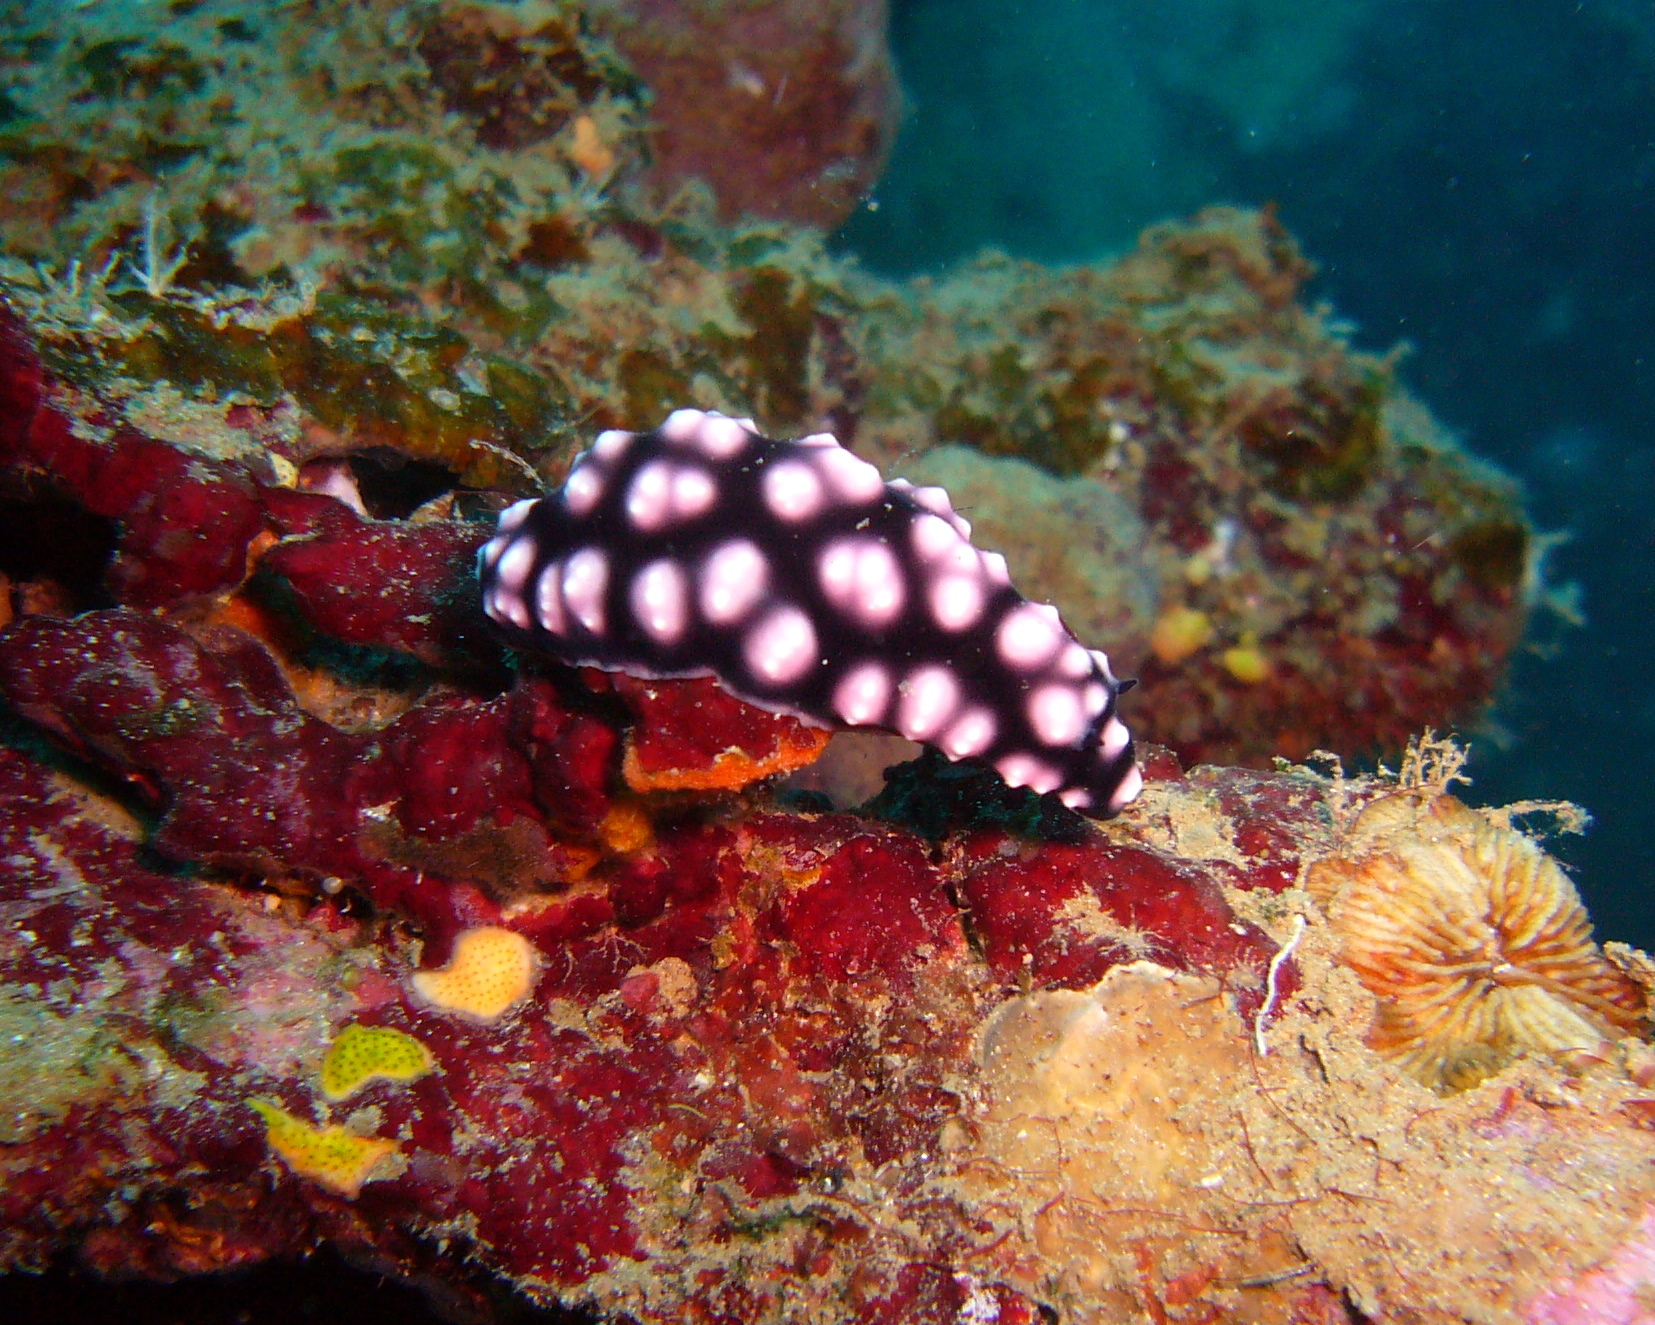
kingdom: Animalia
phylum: Mollusca
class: Gastropoda
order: Nudibranchia
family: Phyllidiidae
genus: Phyllidiella
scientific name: Phyllidiella pustulosa
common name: Pustular phyllidia
